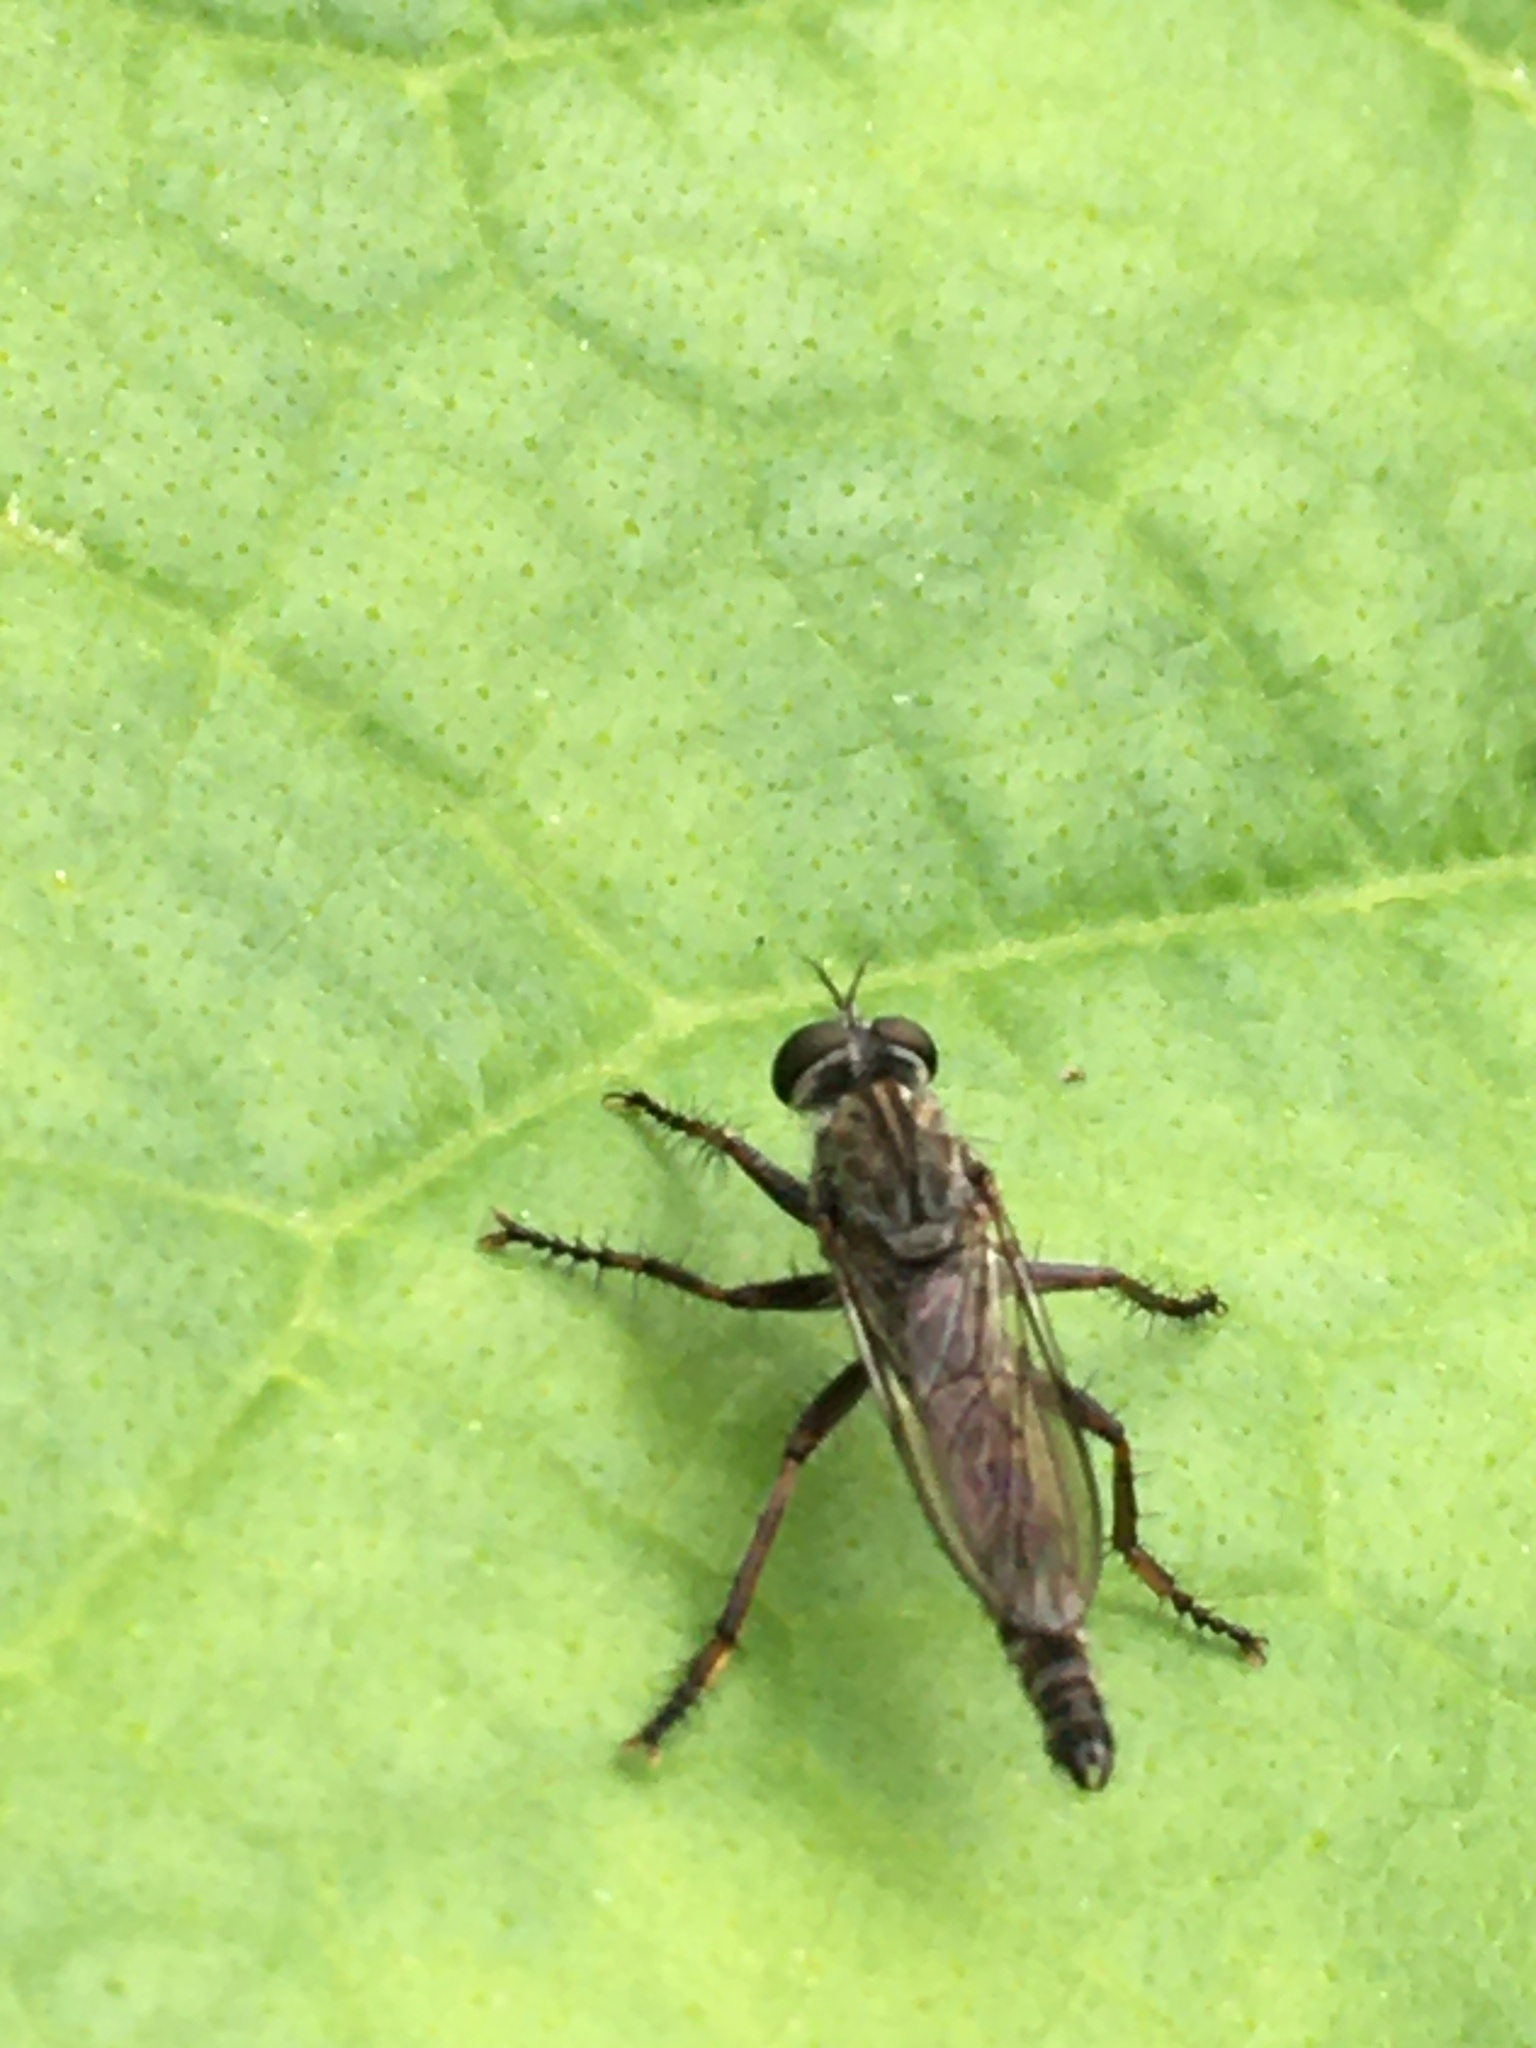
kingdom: Animalia
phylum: Arthropoda
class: Insecta
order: Diptera
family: Asilidae
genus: Machimus
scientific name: Machimus atricapillus
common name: Kite-tailed robberfly
